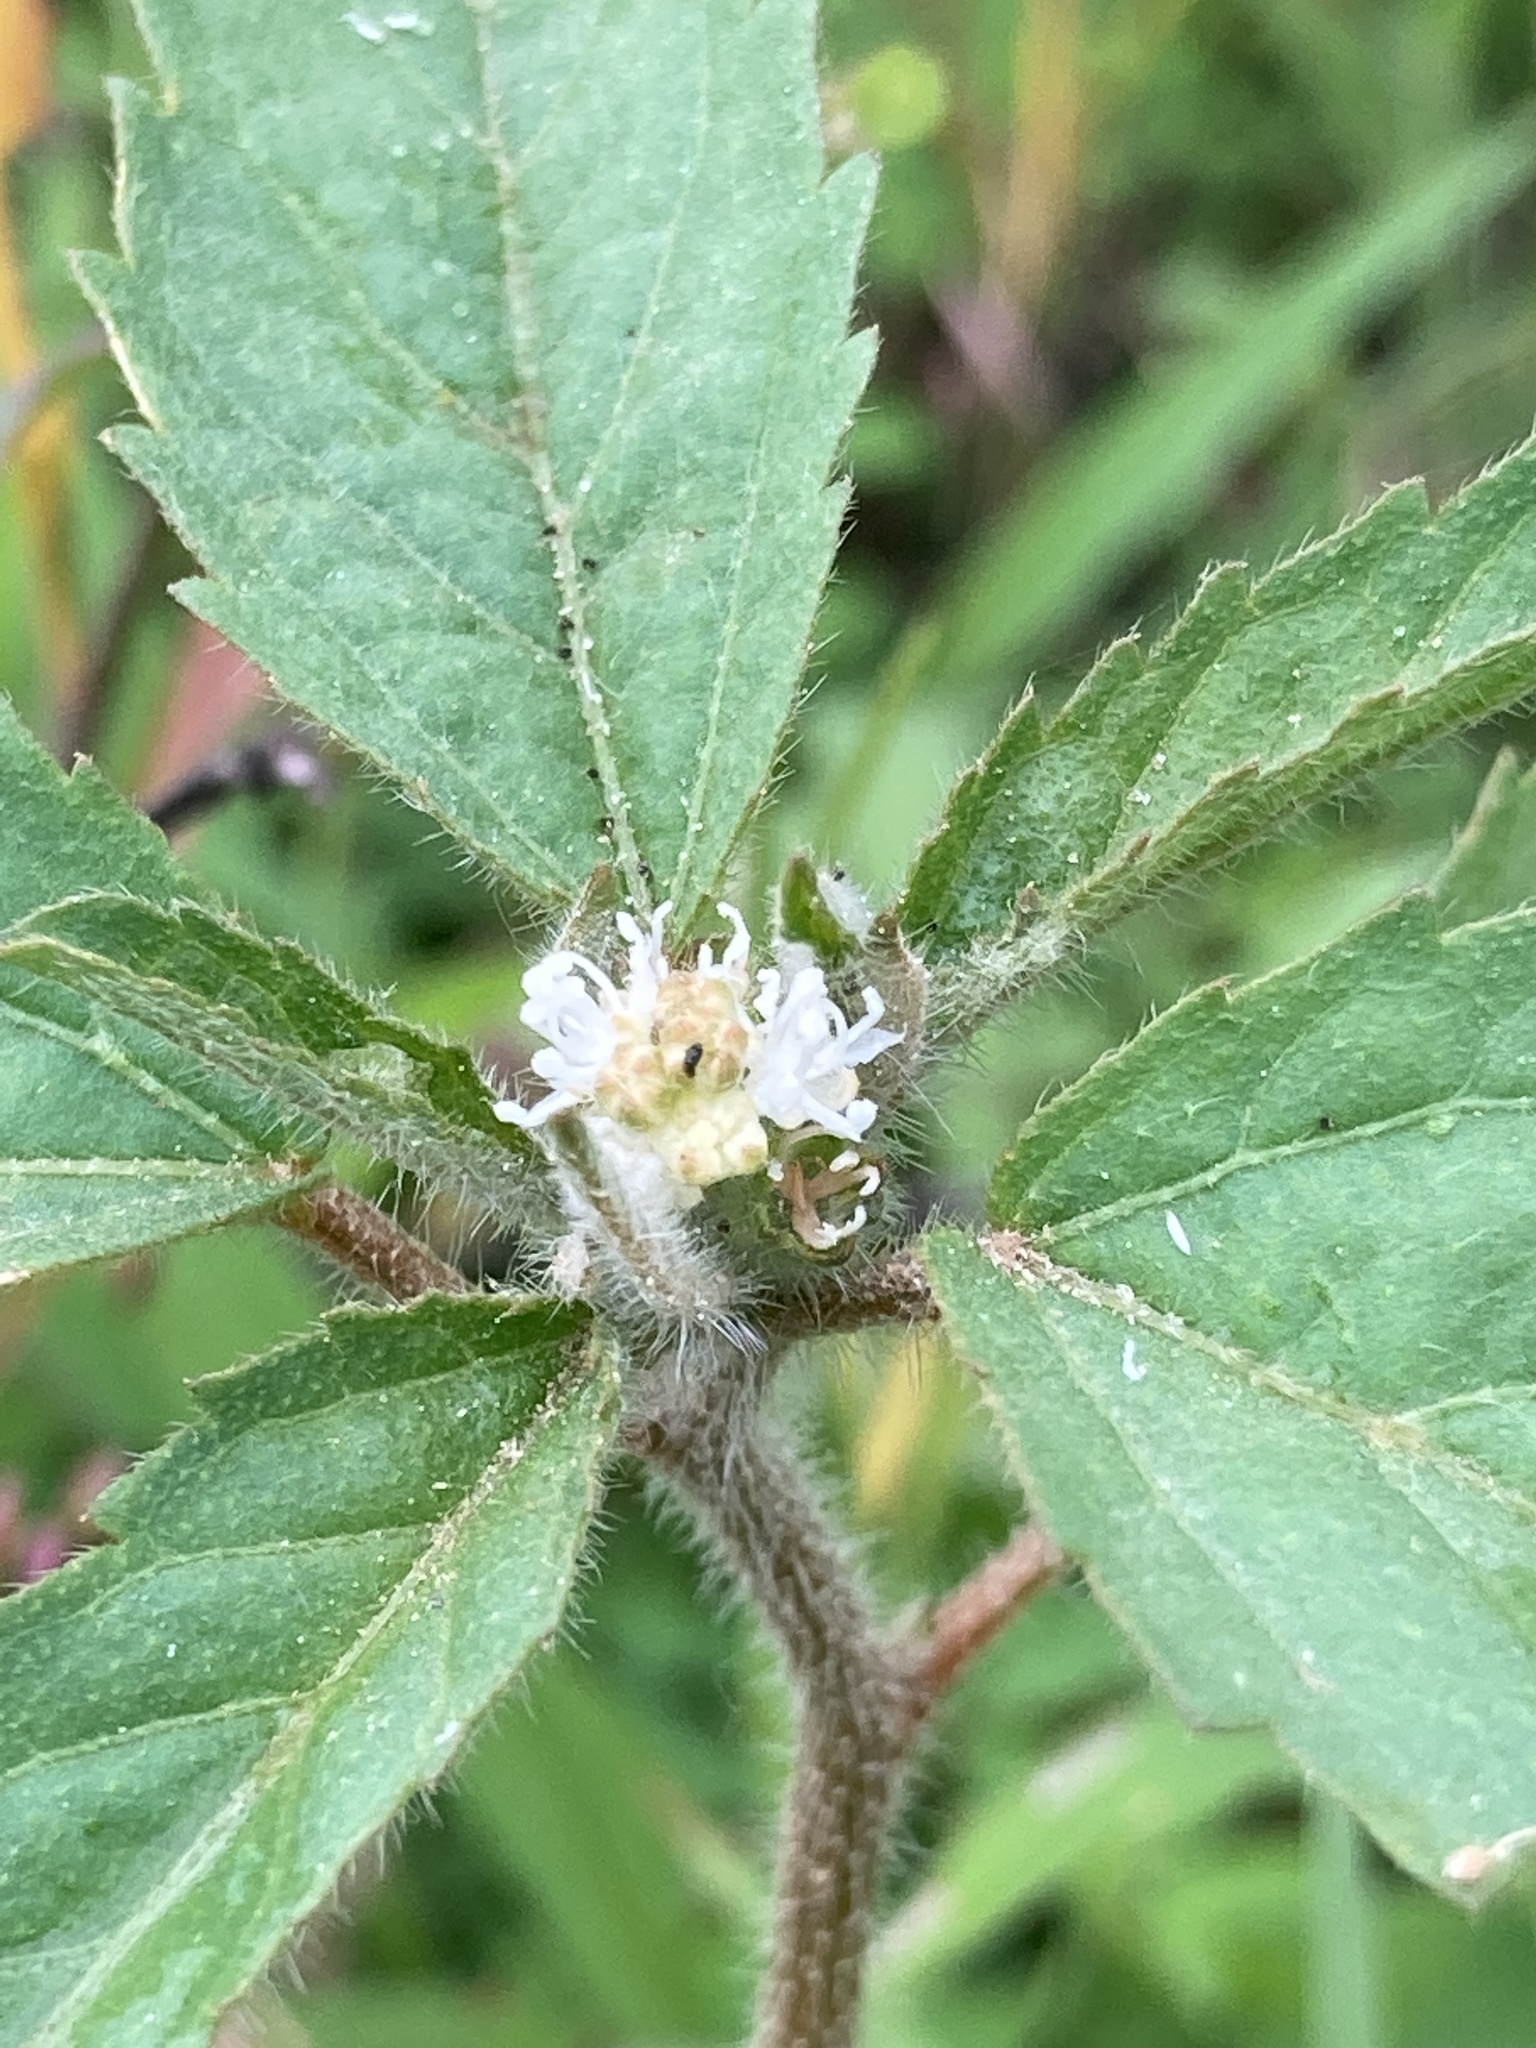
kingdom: Plantae
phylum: Tracheophyta
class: Magnoliopsida
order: Malpighiales
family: Euphorbiaceae
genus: Croton
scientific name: Croton glandulosus
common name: Tropic croton
